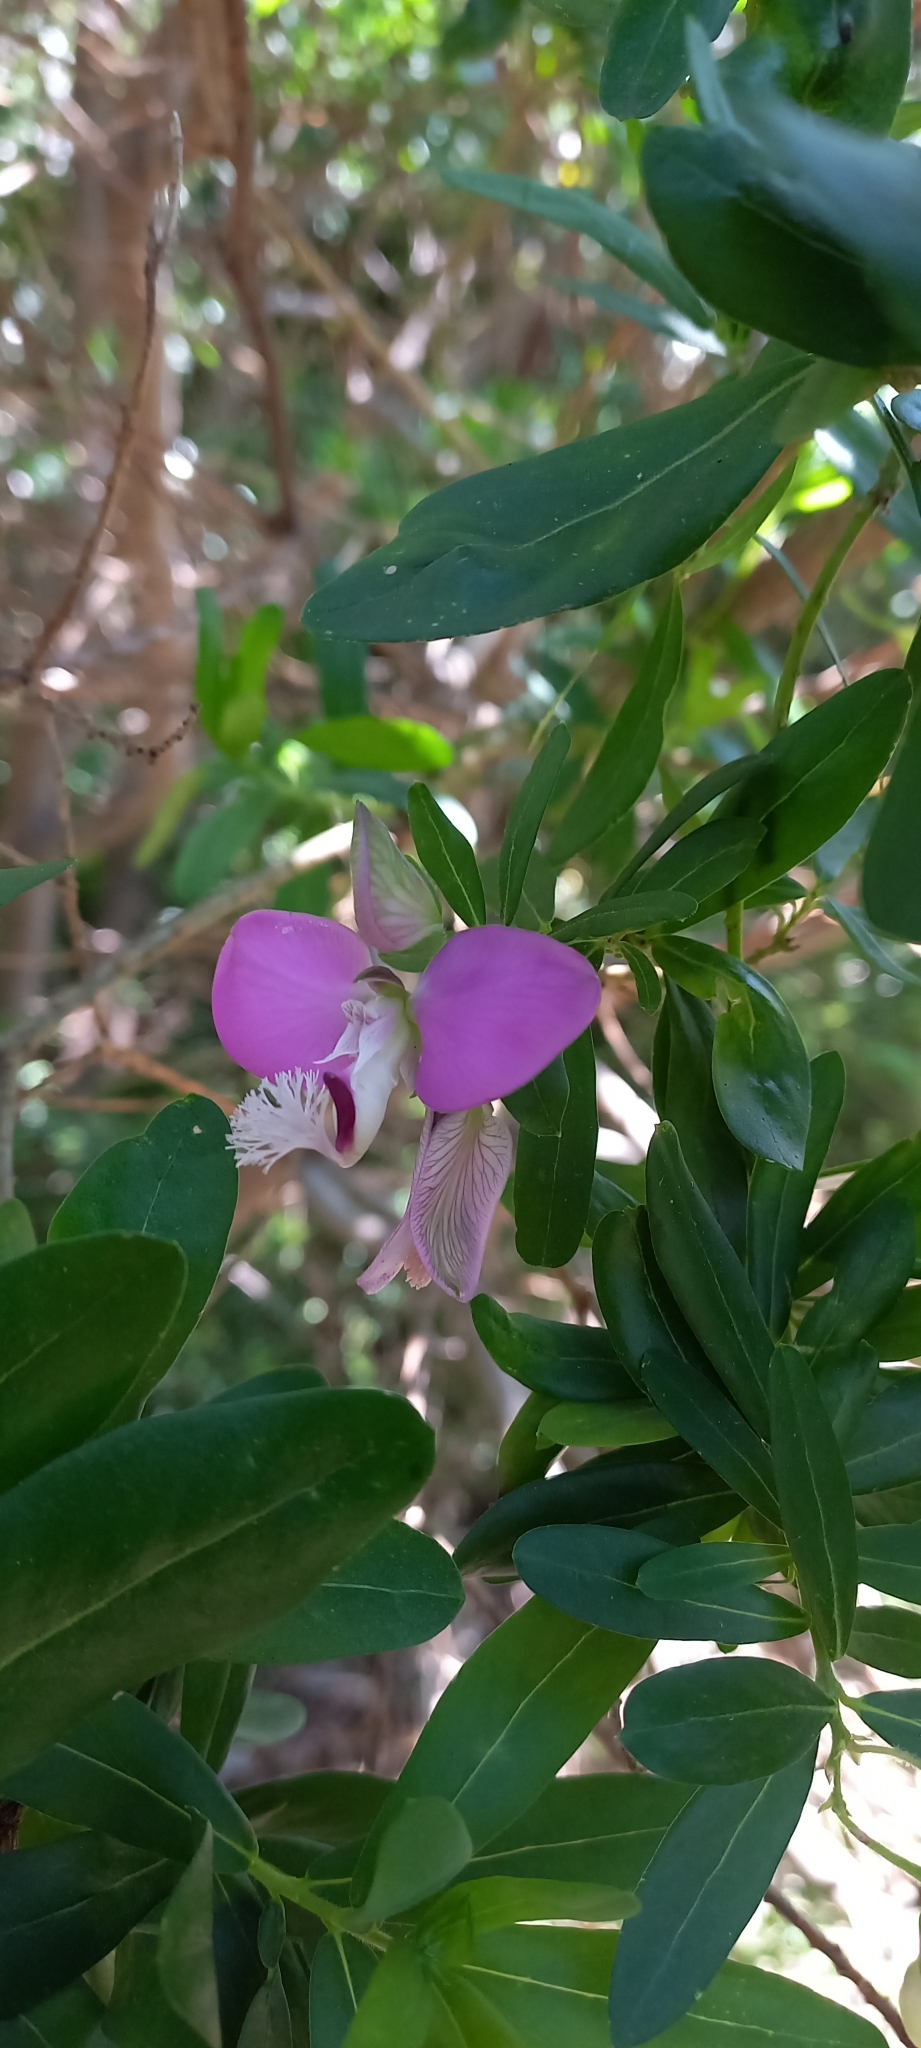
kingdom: Plantae
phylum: Tracheophyta
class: Magnoliopsida
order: Fabales
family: Polygalaceae
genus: Polygala
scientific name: Polygala myrtifolia
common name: Myrtle-leaf milkwort
